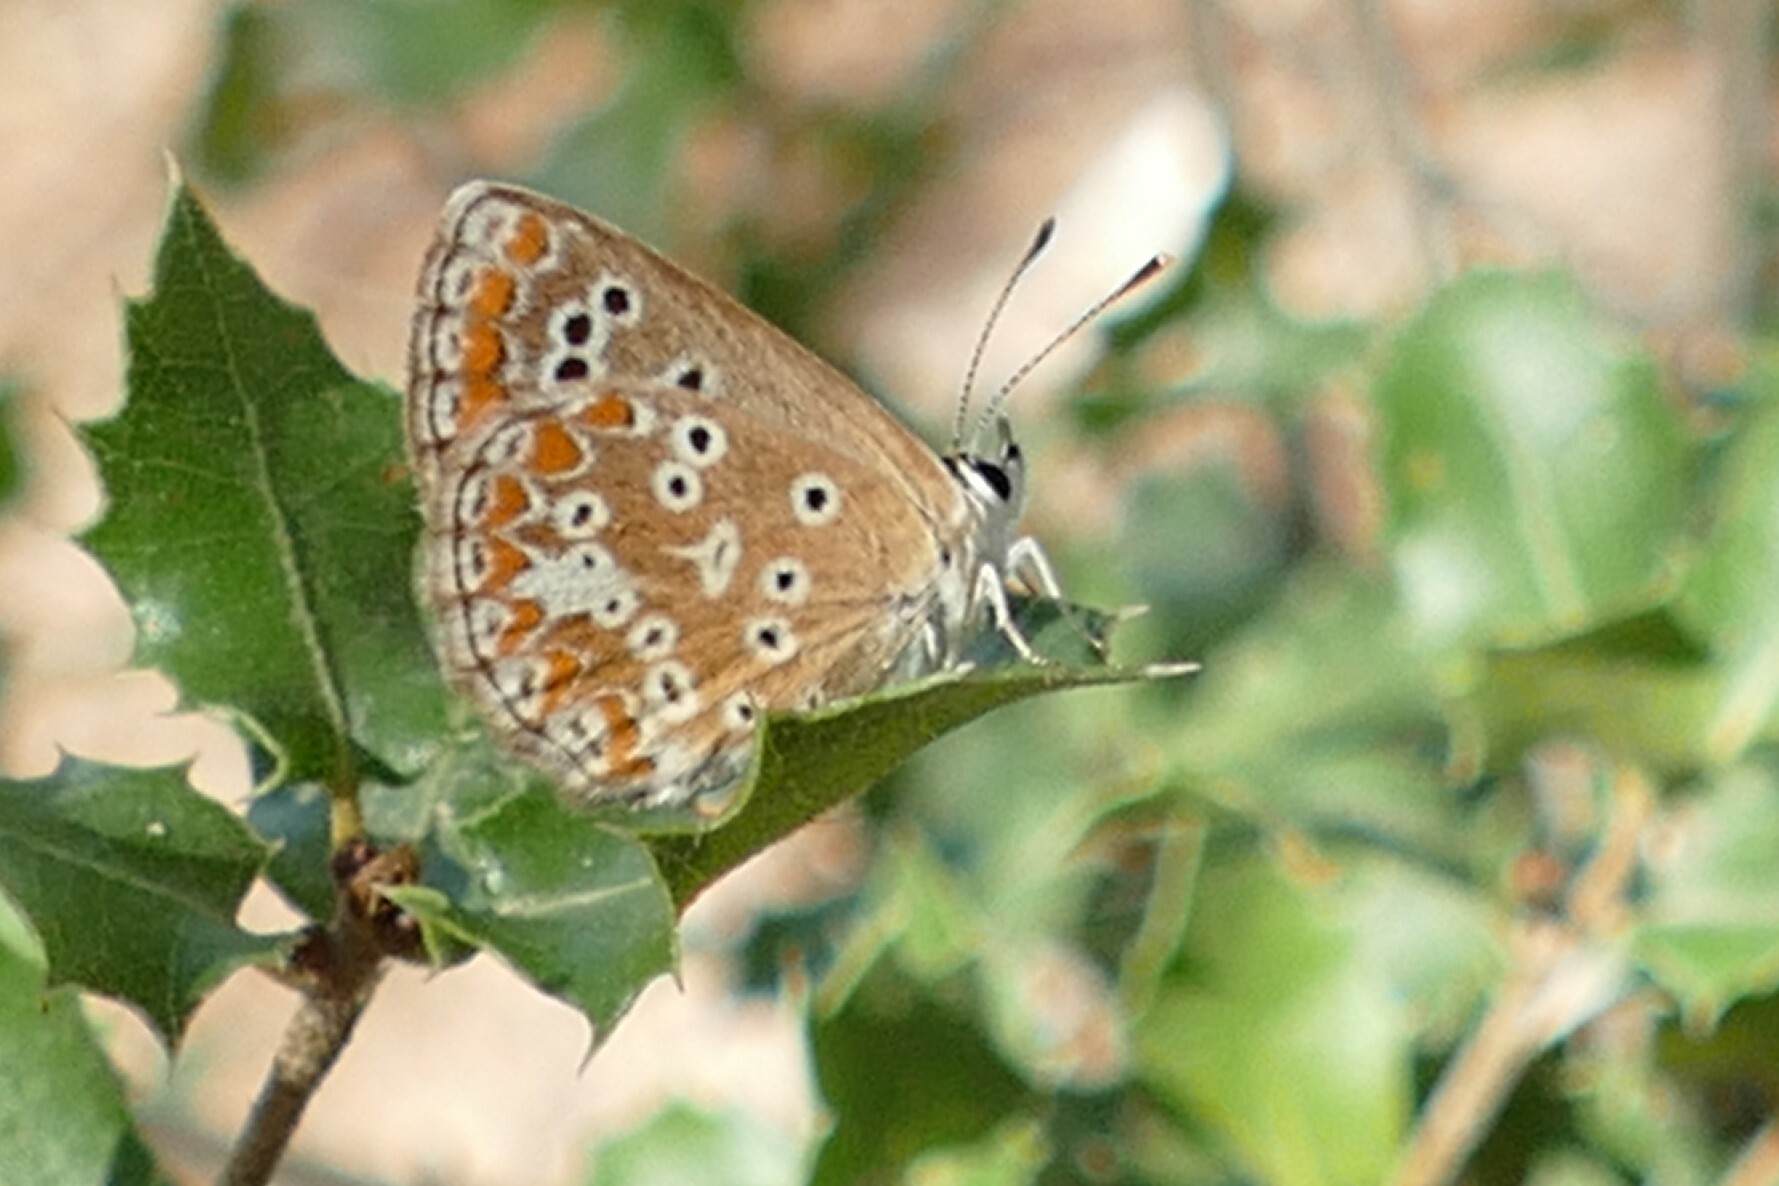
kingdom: Animalia
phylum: Arthropoda
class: Insecta
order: Lepidoptera
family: Lycaenidae
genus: Aricia
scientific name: Aricia cramera
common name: Eschscholtz´s brown  argus
